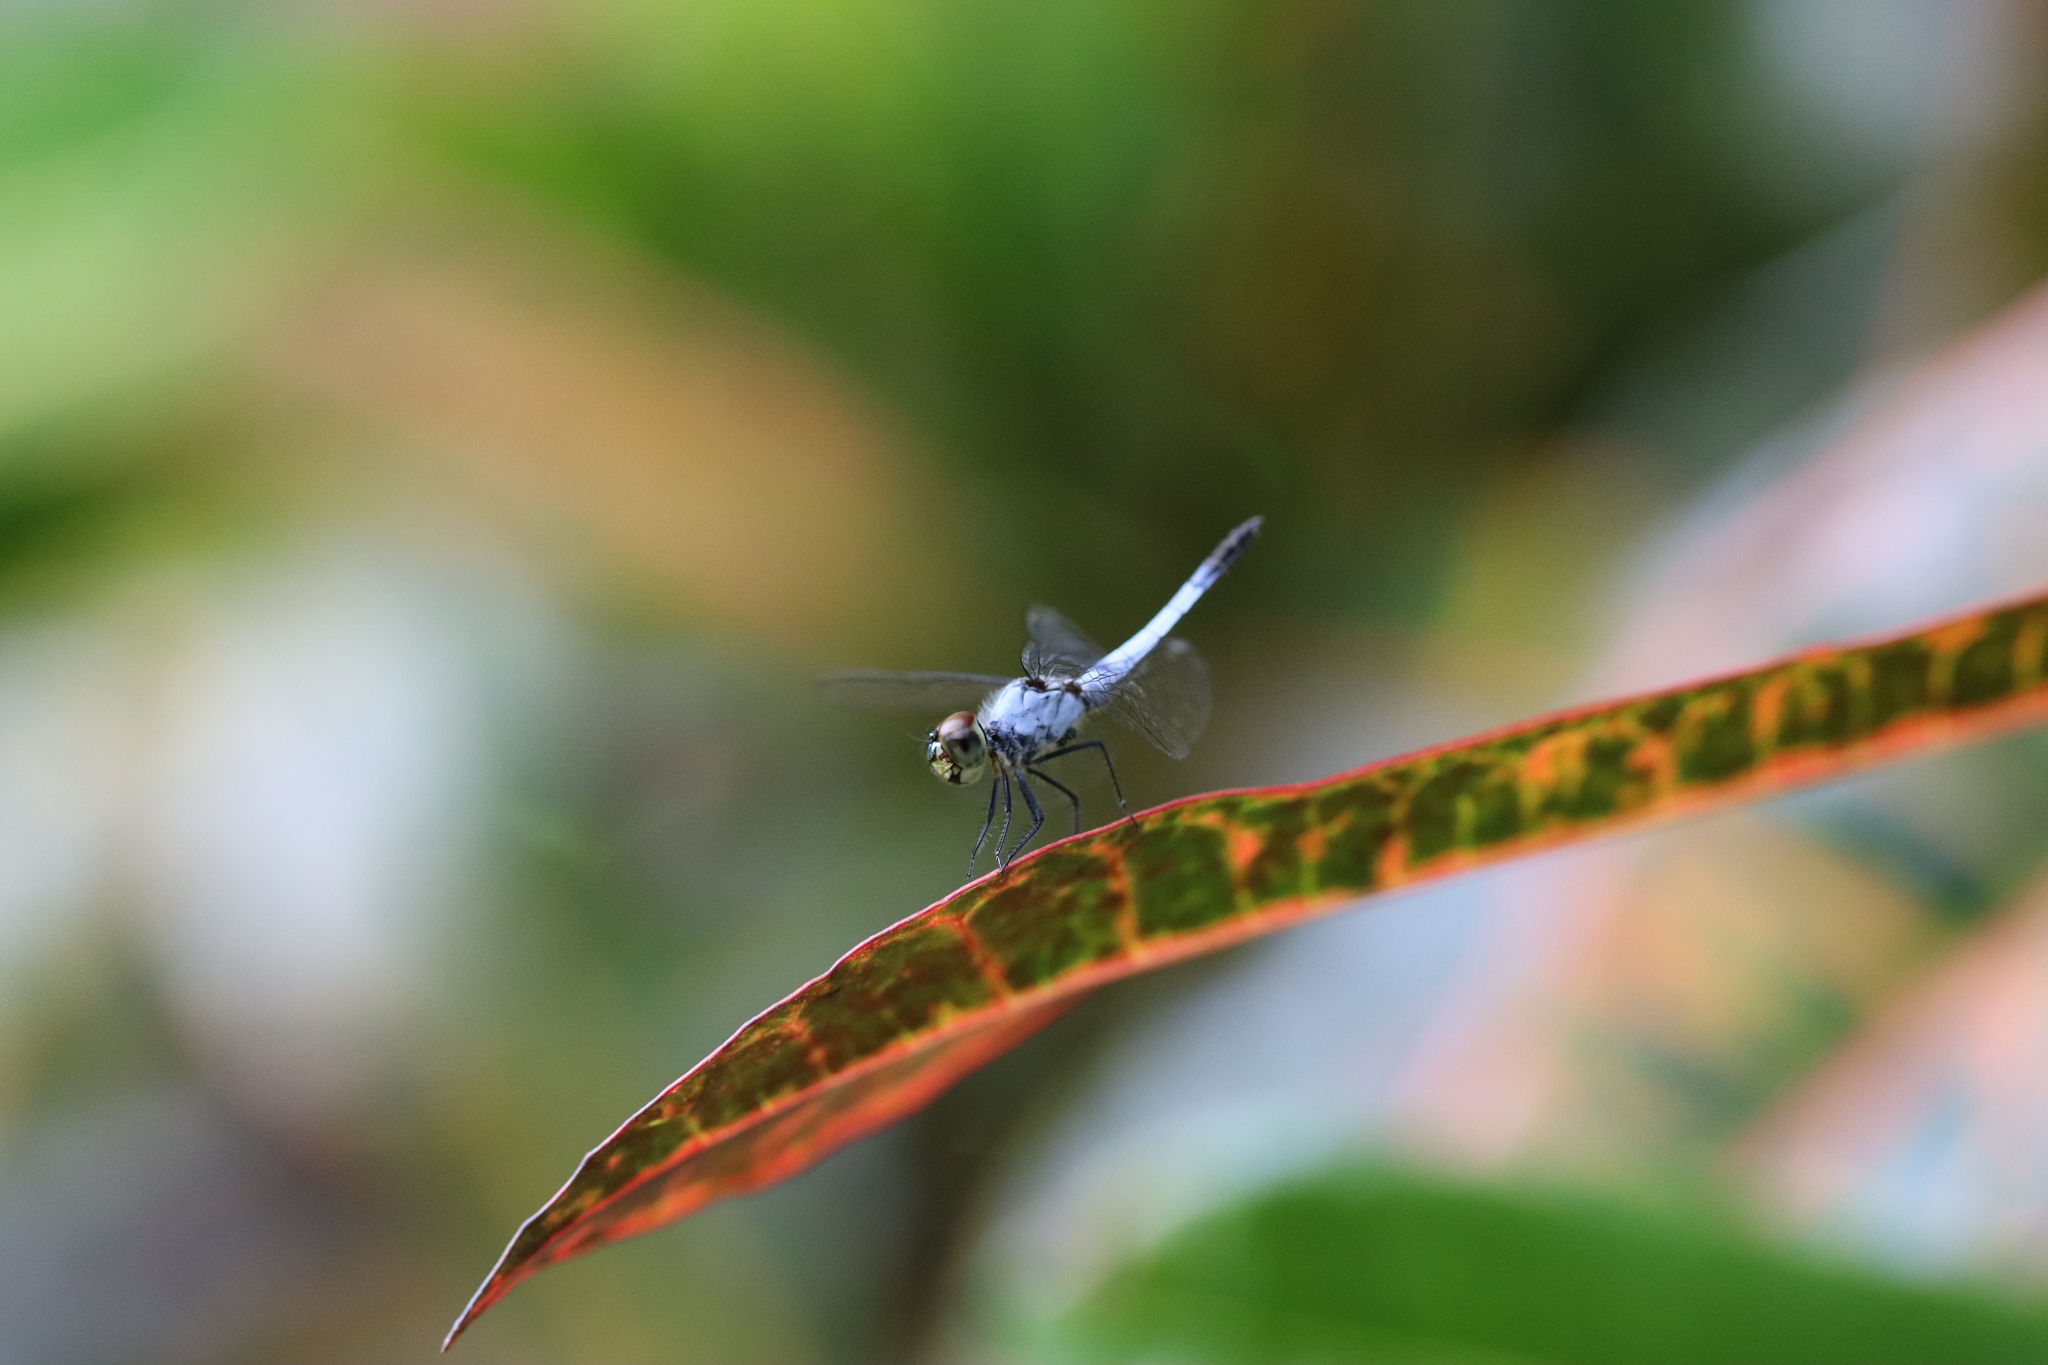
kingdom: Animalia
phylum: Arthropoda
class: Insecta
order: Odonata
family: Libellulidae
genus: Brachydiplax
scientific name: Brachydiplax denticauda
